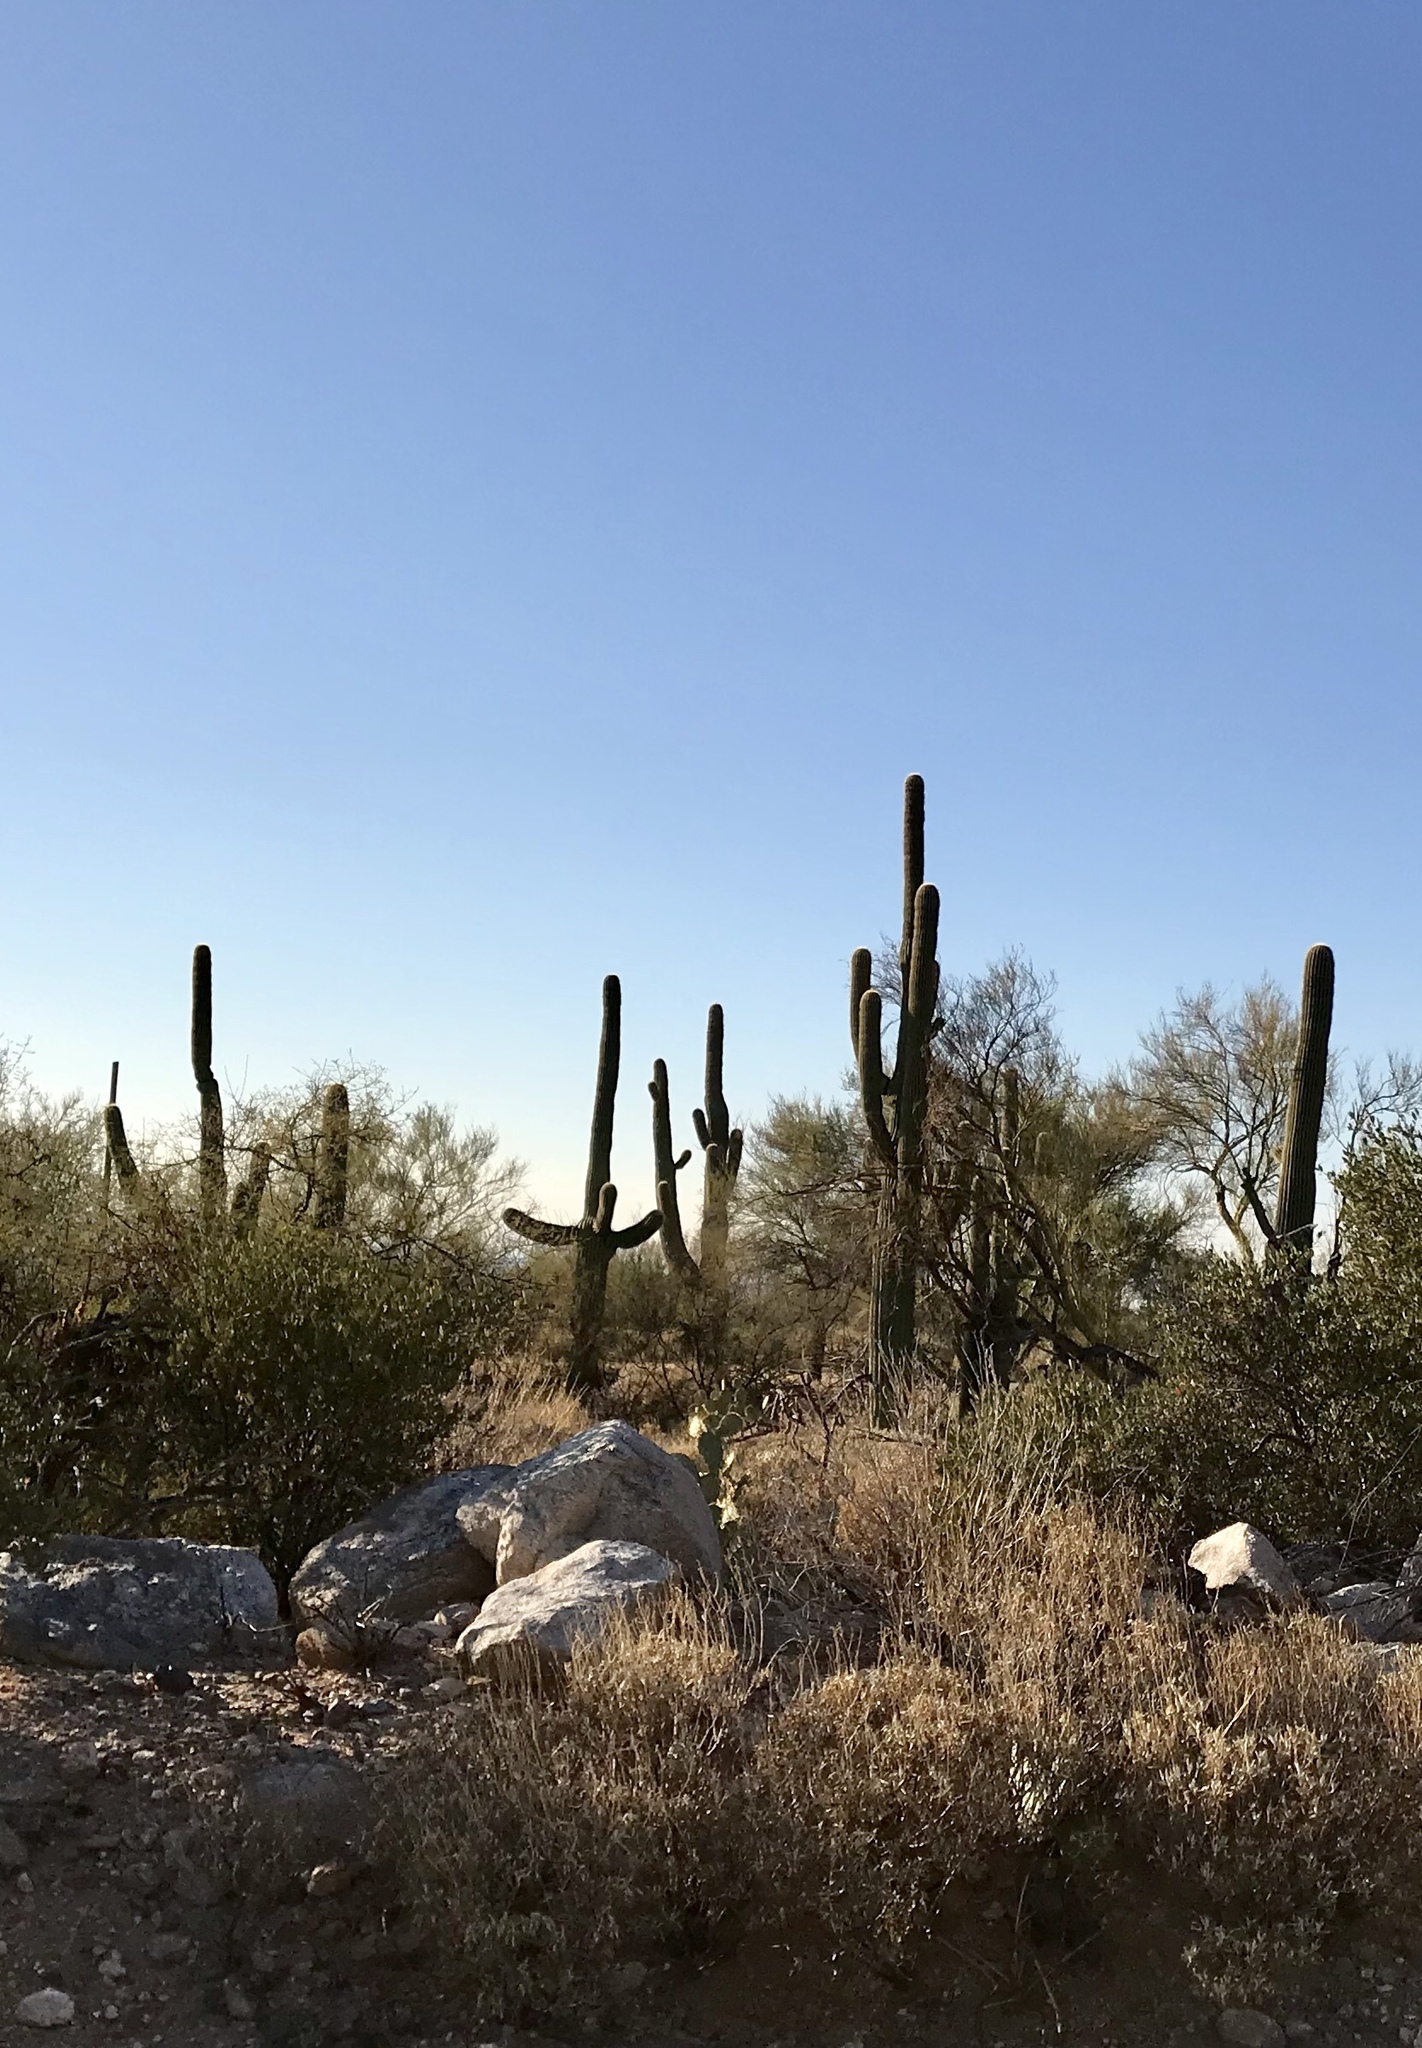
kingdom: Plantae
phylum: Tracheophyta
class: Magnoliopsida
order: Caryophyllales
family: Cactaceae
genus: Carnegiea
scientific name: Carnegiea gigantea
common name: Saguaro
